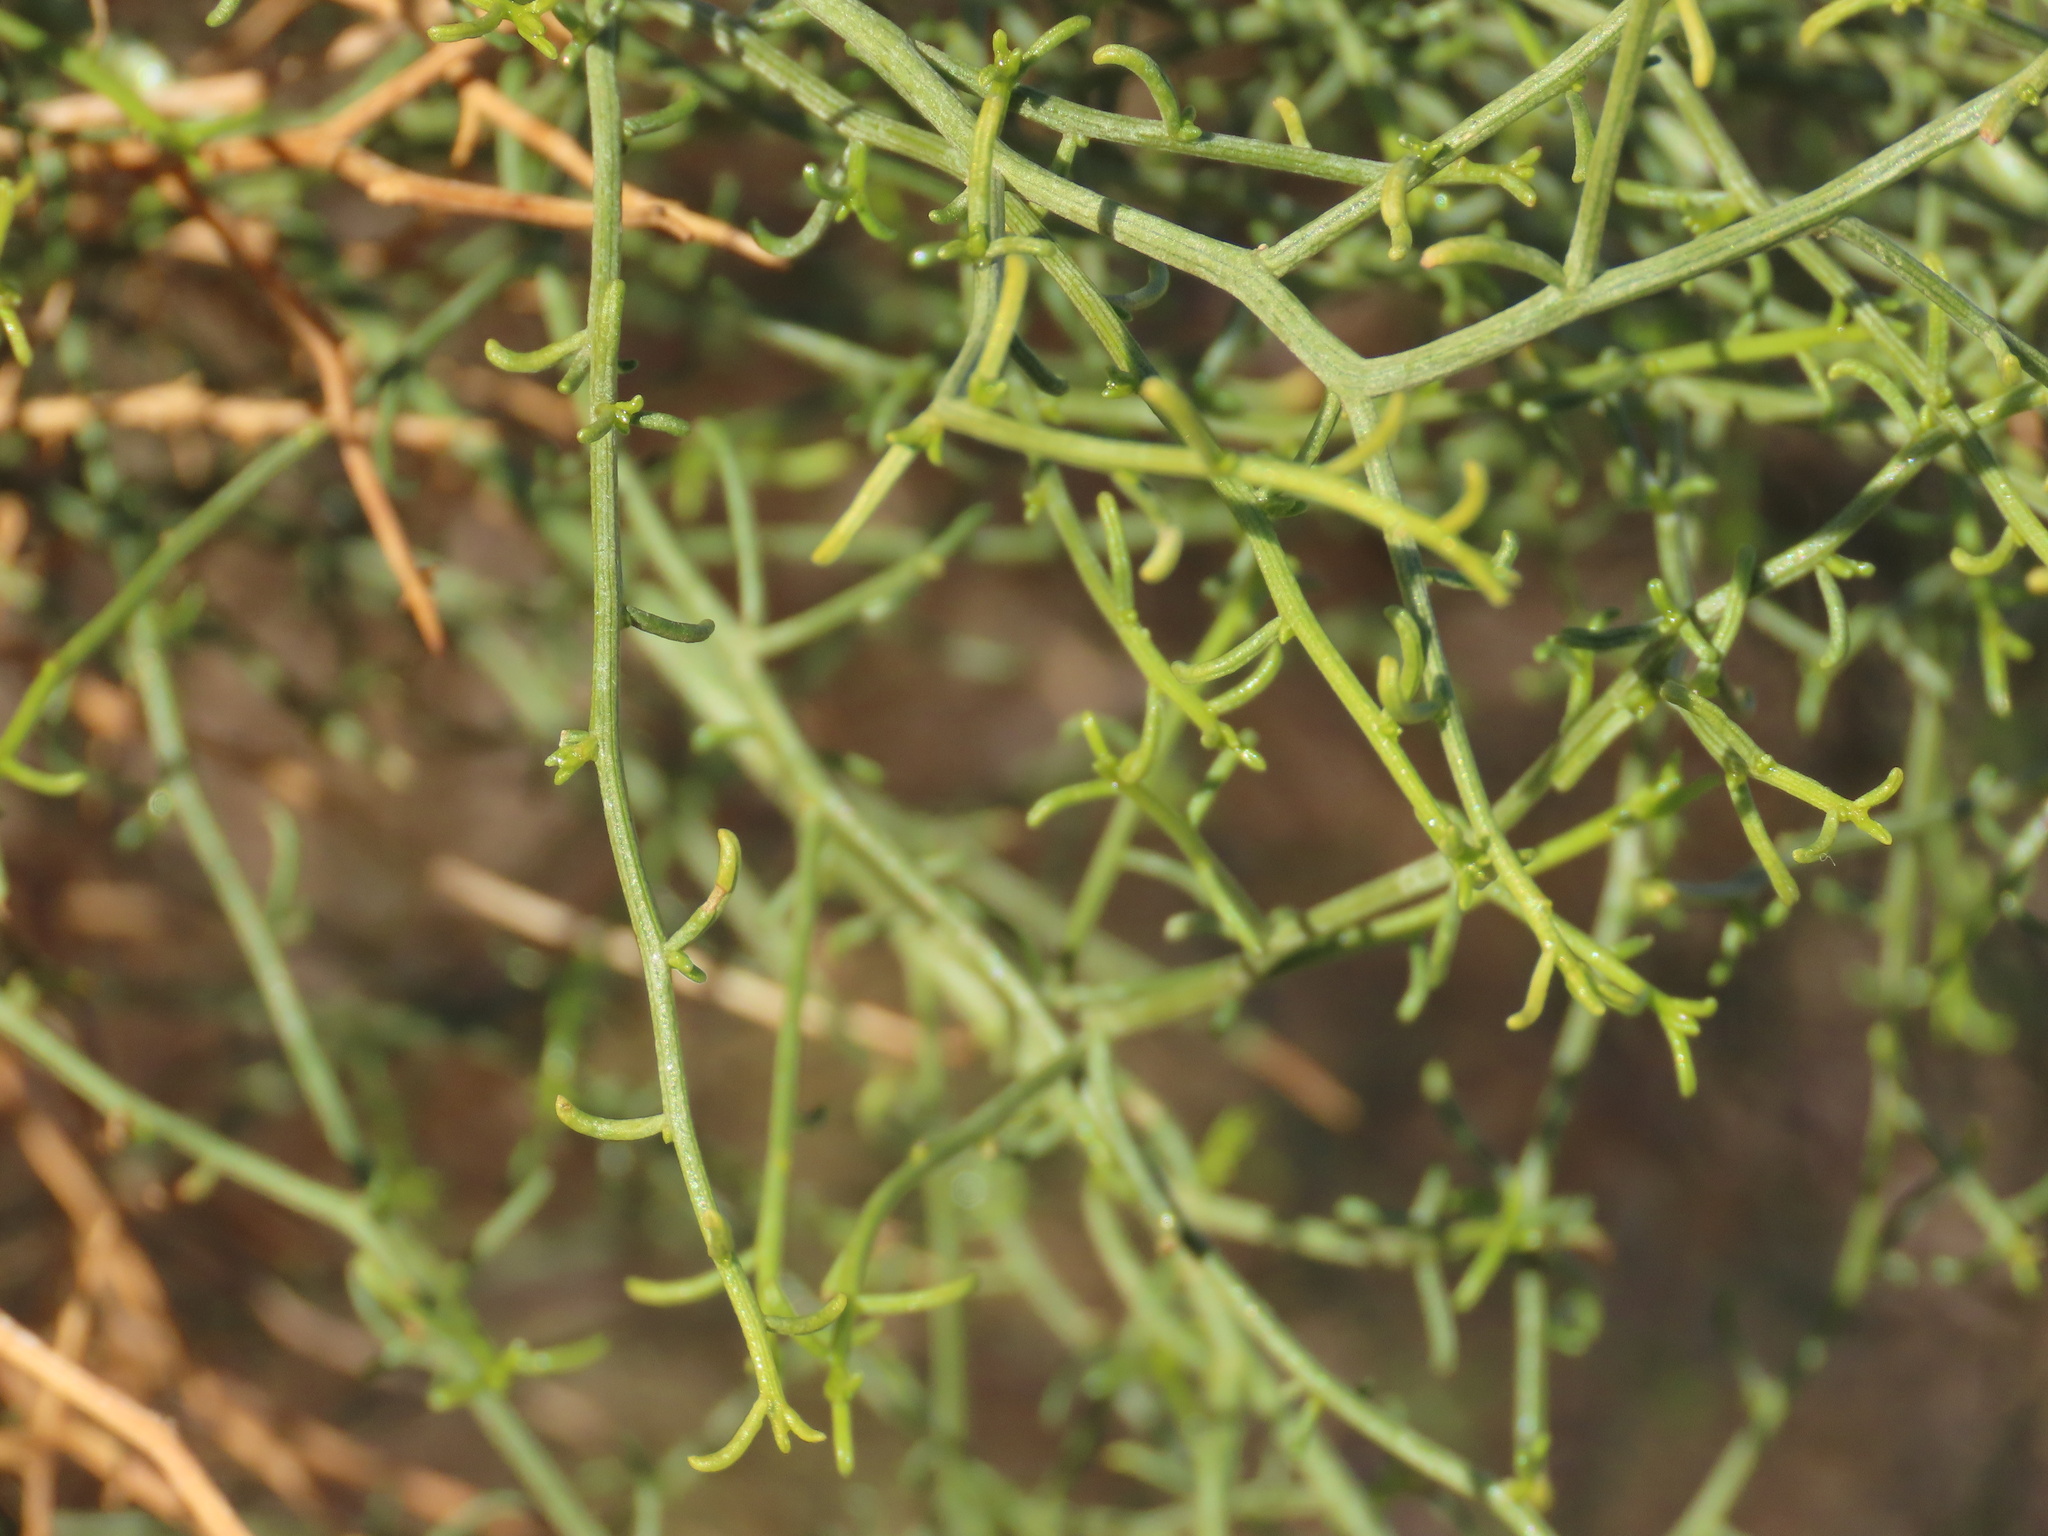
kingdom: Plantae
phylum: Tracheophyta
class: Magnoliopsida
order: Asterales
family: Asteraceae
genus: Ambrosia
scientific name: Ambrosia salsola
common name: Burrobrush
